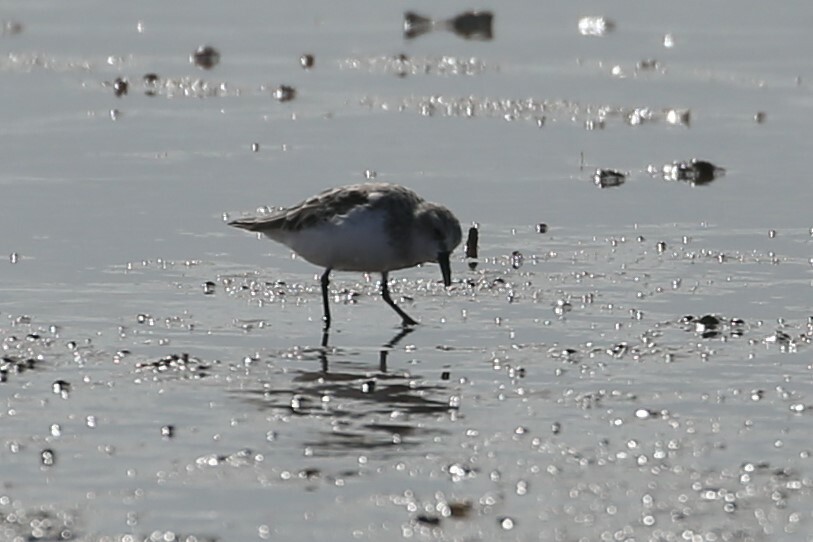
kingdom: Animalia
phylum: Chordata
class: Aves
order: Charadriiformes
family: Scolopacidae
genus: Calidris
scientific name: Calidris ruficollis
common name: Red-necked stint
